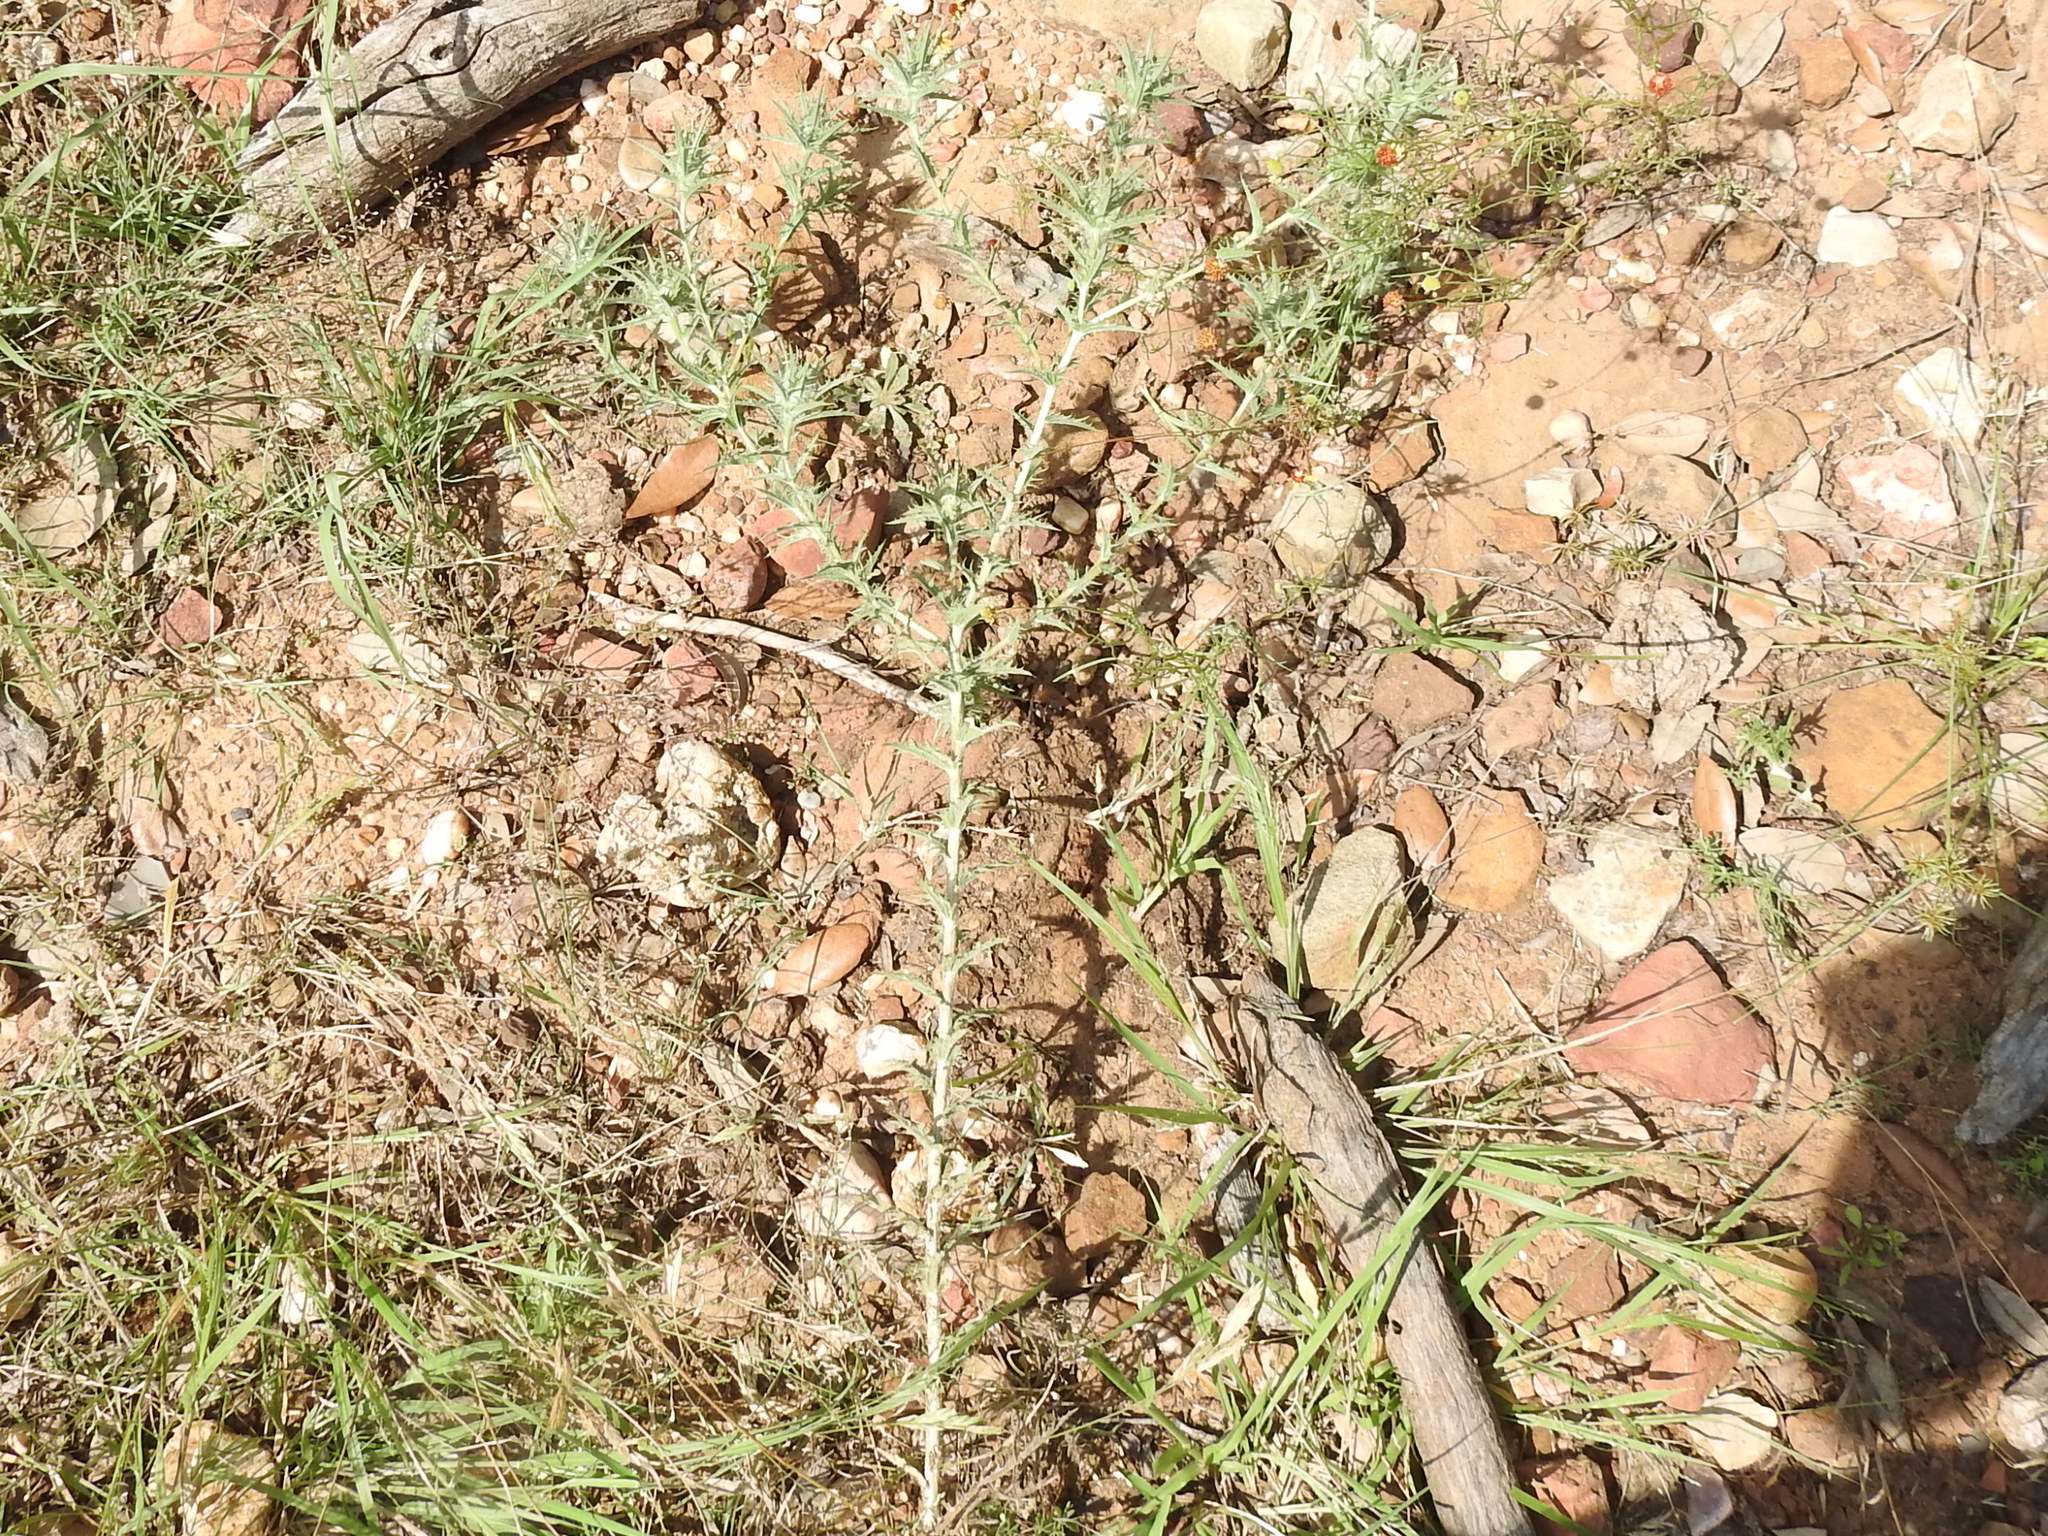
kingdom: Plantae
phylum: Tracheophyta
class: Magnoliopsida
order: Asterales
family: Asteraceae
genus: Carthamus
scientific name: Carthamus lanatus
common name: Downy safflower
